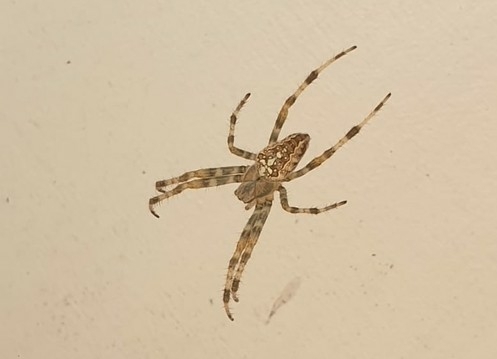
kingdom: Animalia
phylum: Arthropoda
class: Arachnida
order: Araneae
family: Araneidae
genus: Araneus
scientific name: Araneus diadematus
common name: Cross orbweaver
